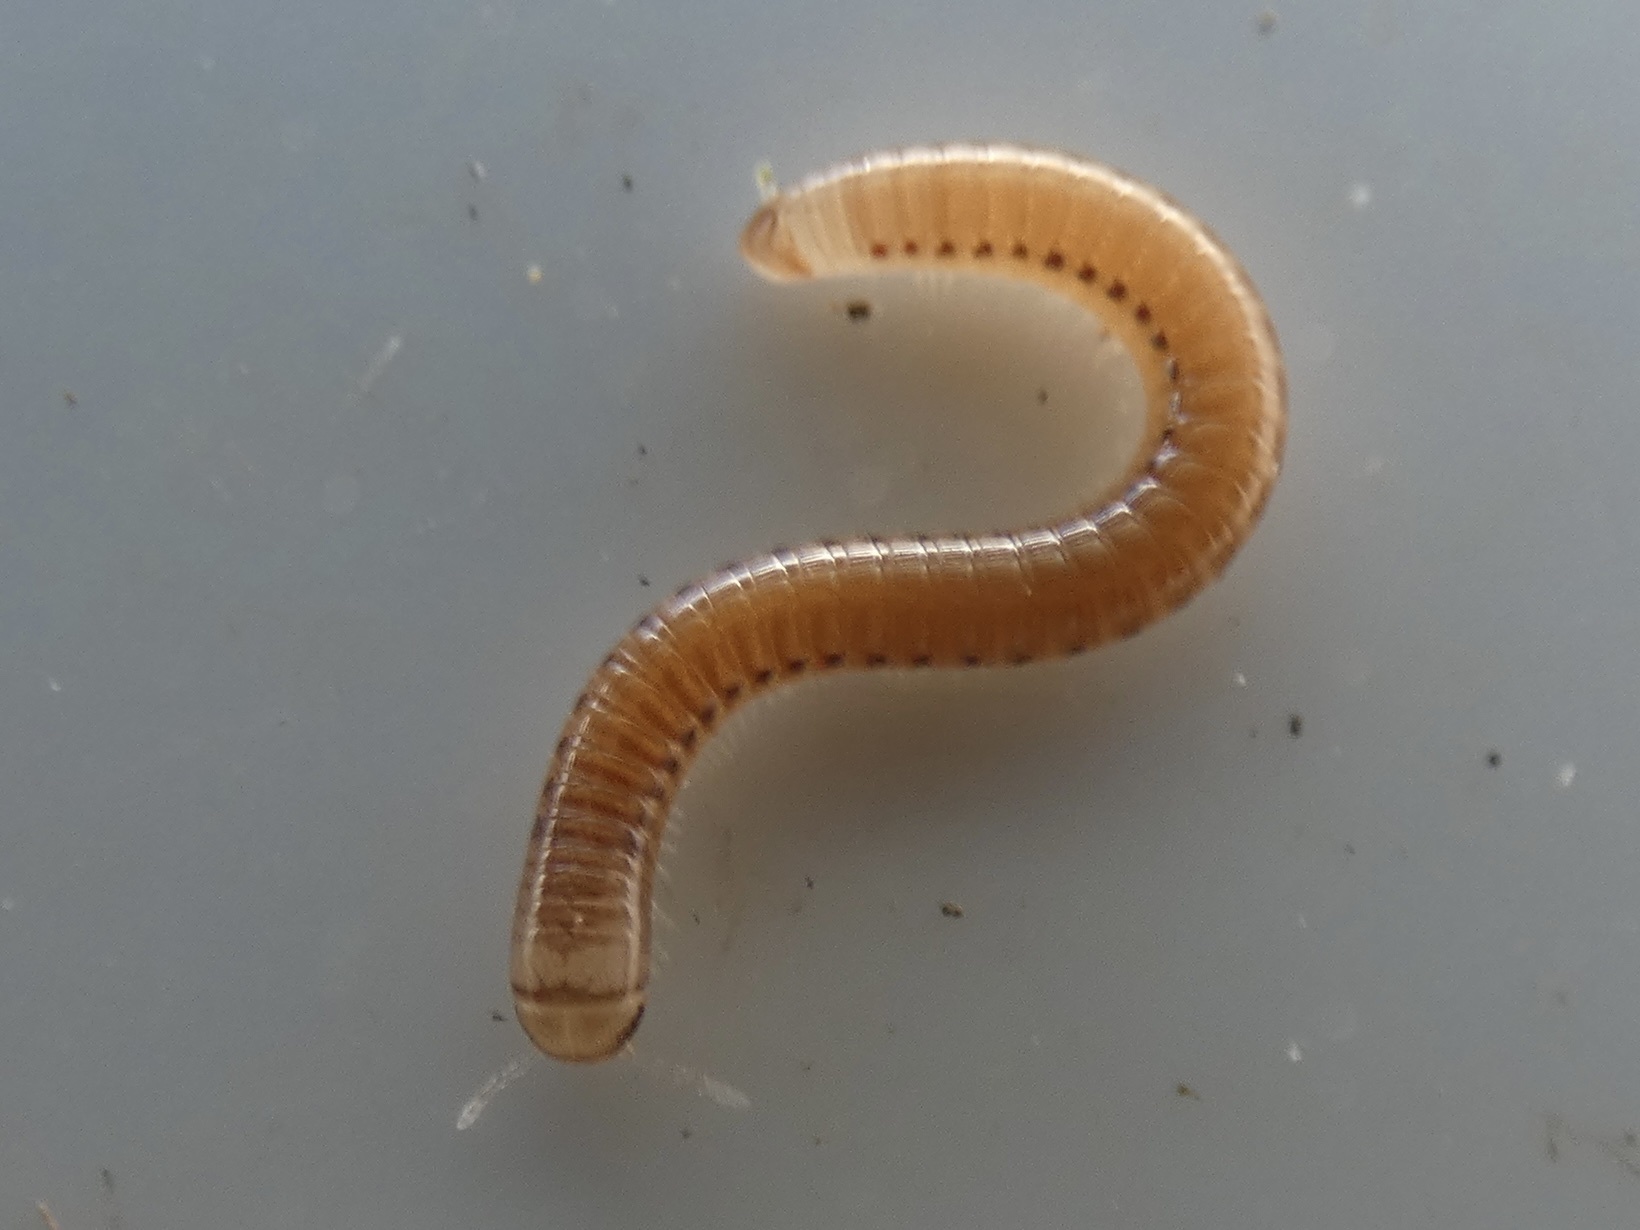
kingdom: Animalia
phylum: Arthropoda
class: Diplopoda
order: Julida
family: Julidae
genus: Cylindroiulus
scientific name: Cylindroiulus latestriatus
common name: Millipede
